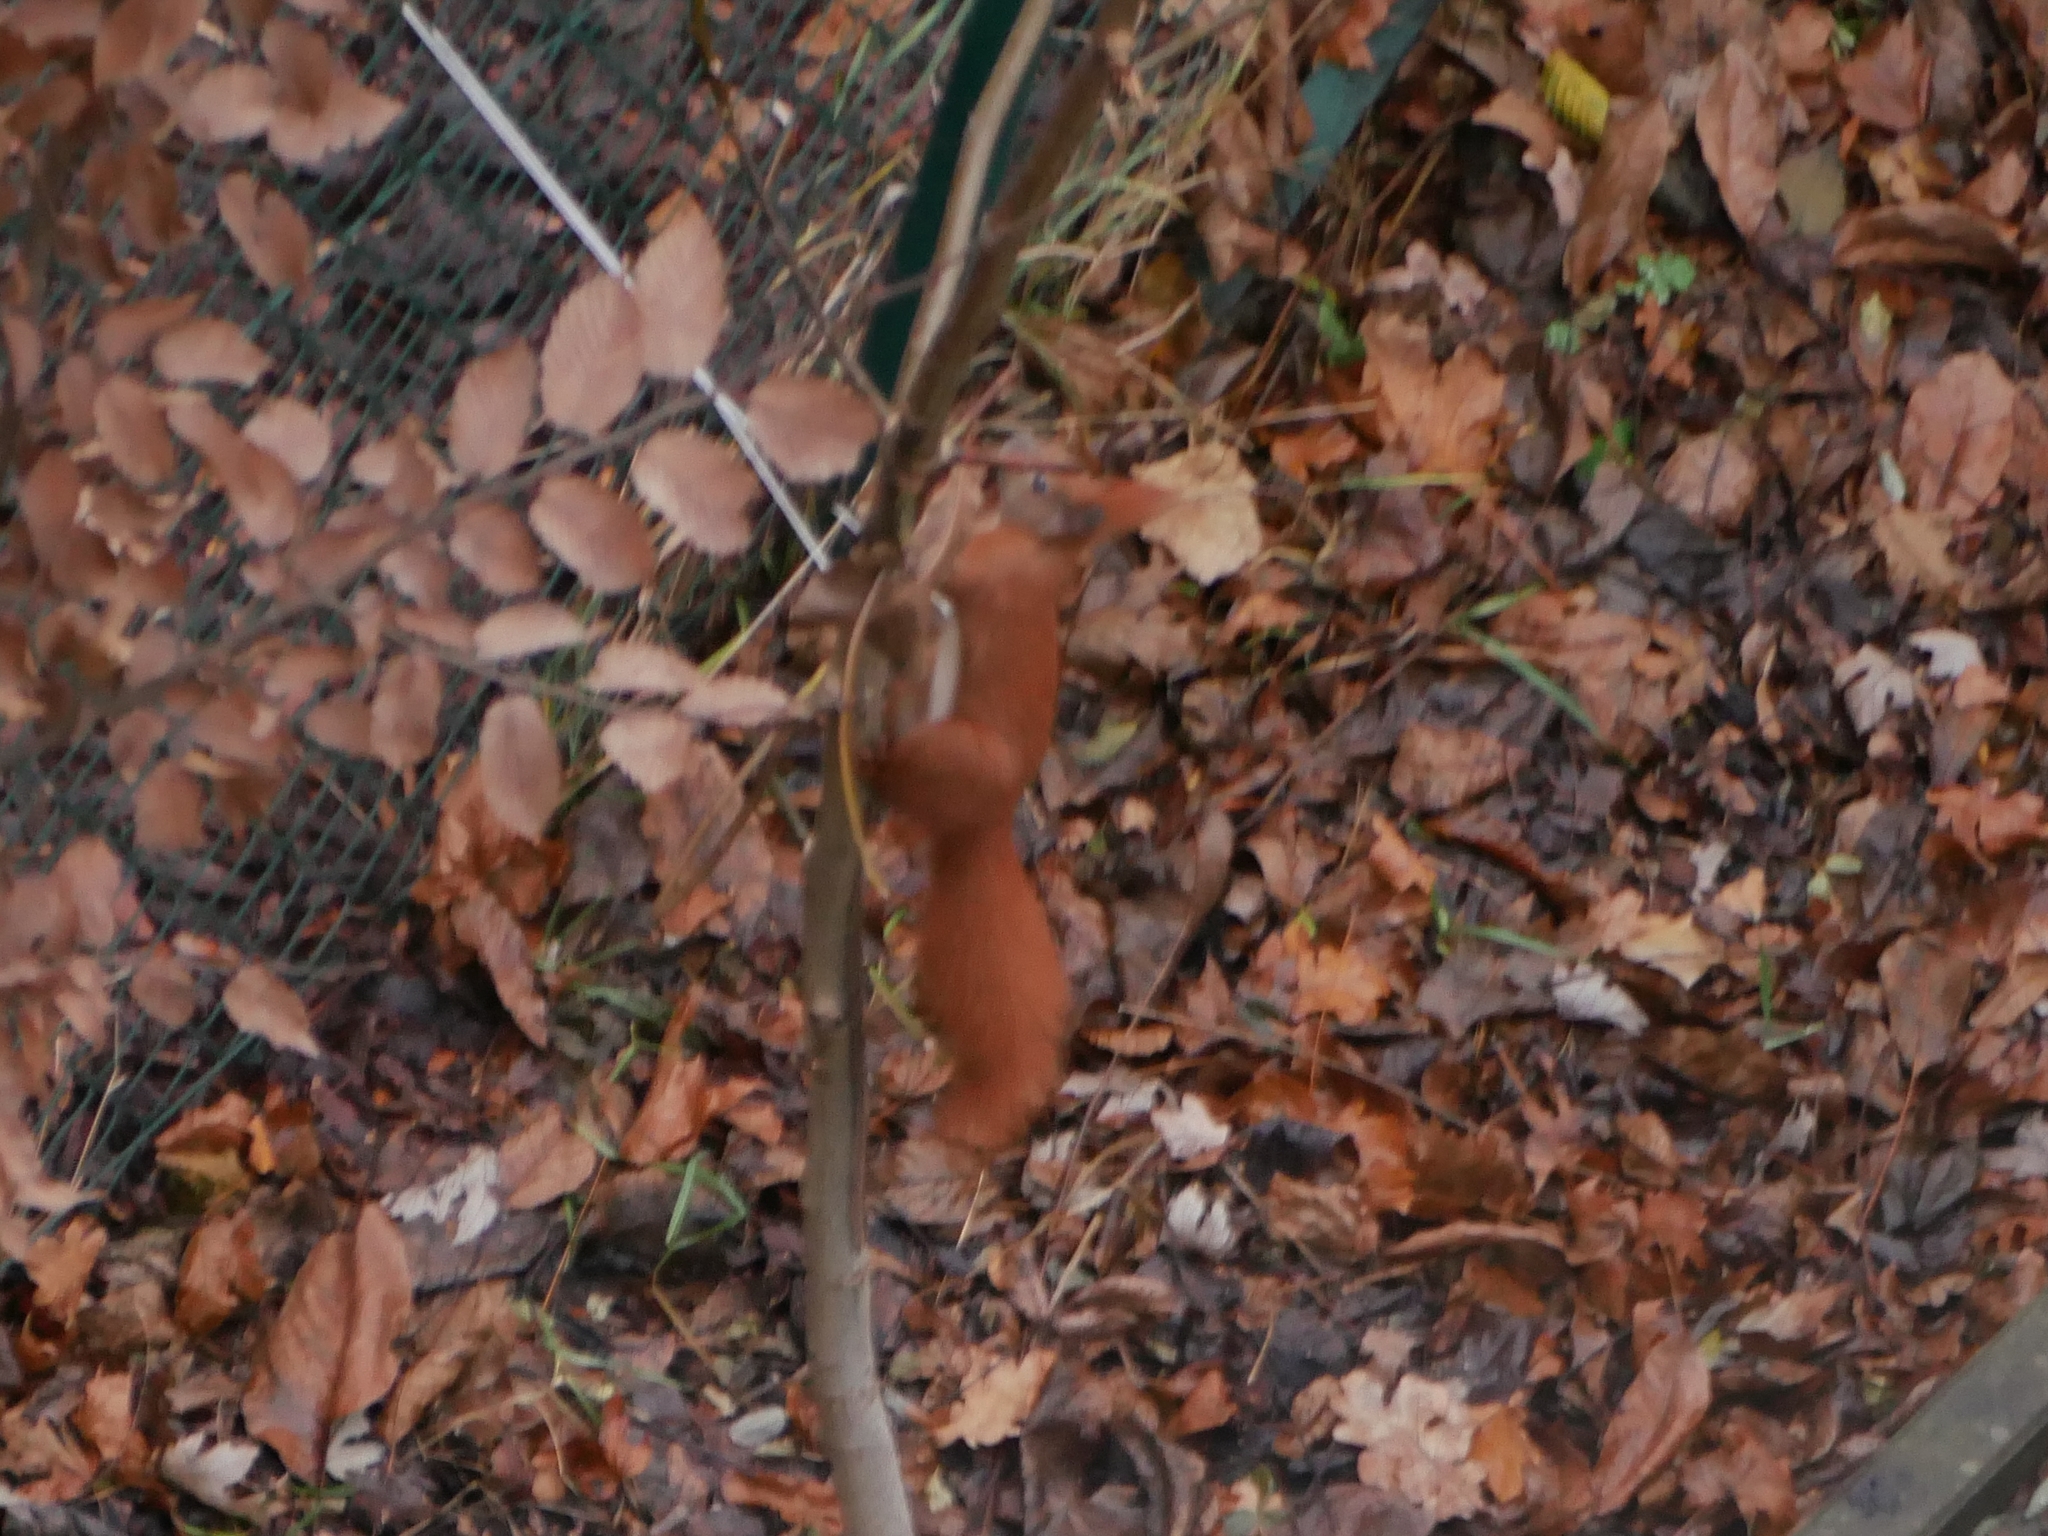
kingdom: Animalia
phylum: Chordata
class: Mammalia
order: Rodentia
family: Sciuridae
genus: Sciurus
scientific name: Sciurus vulgaris
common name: Eurasian red squirrel
